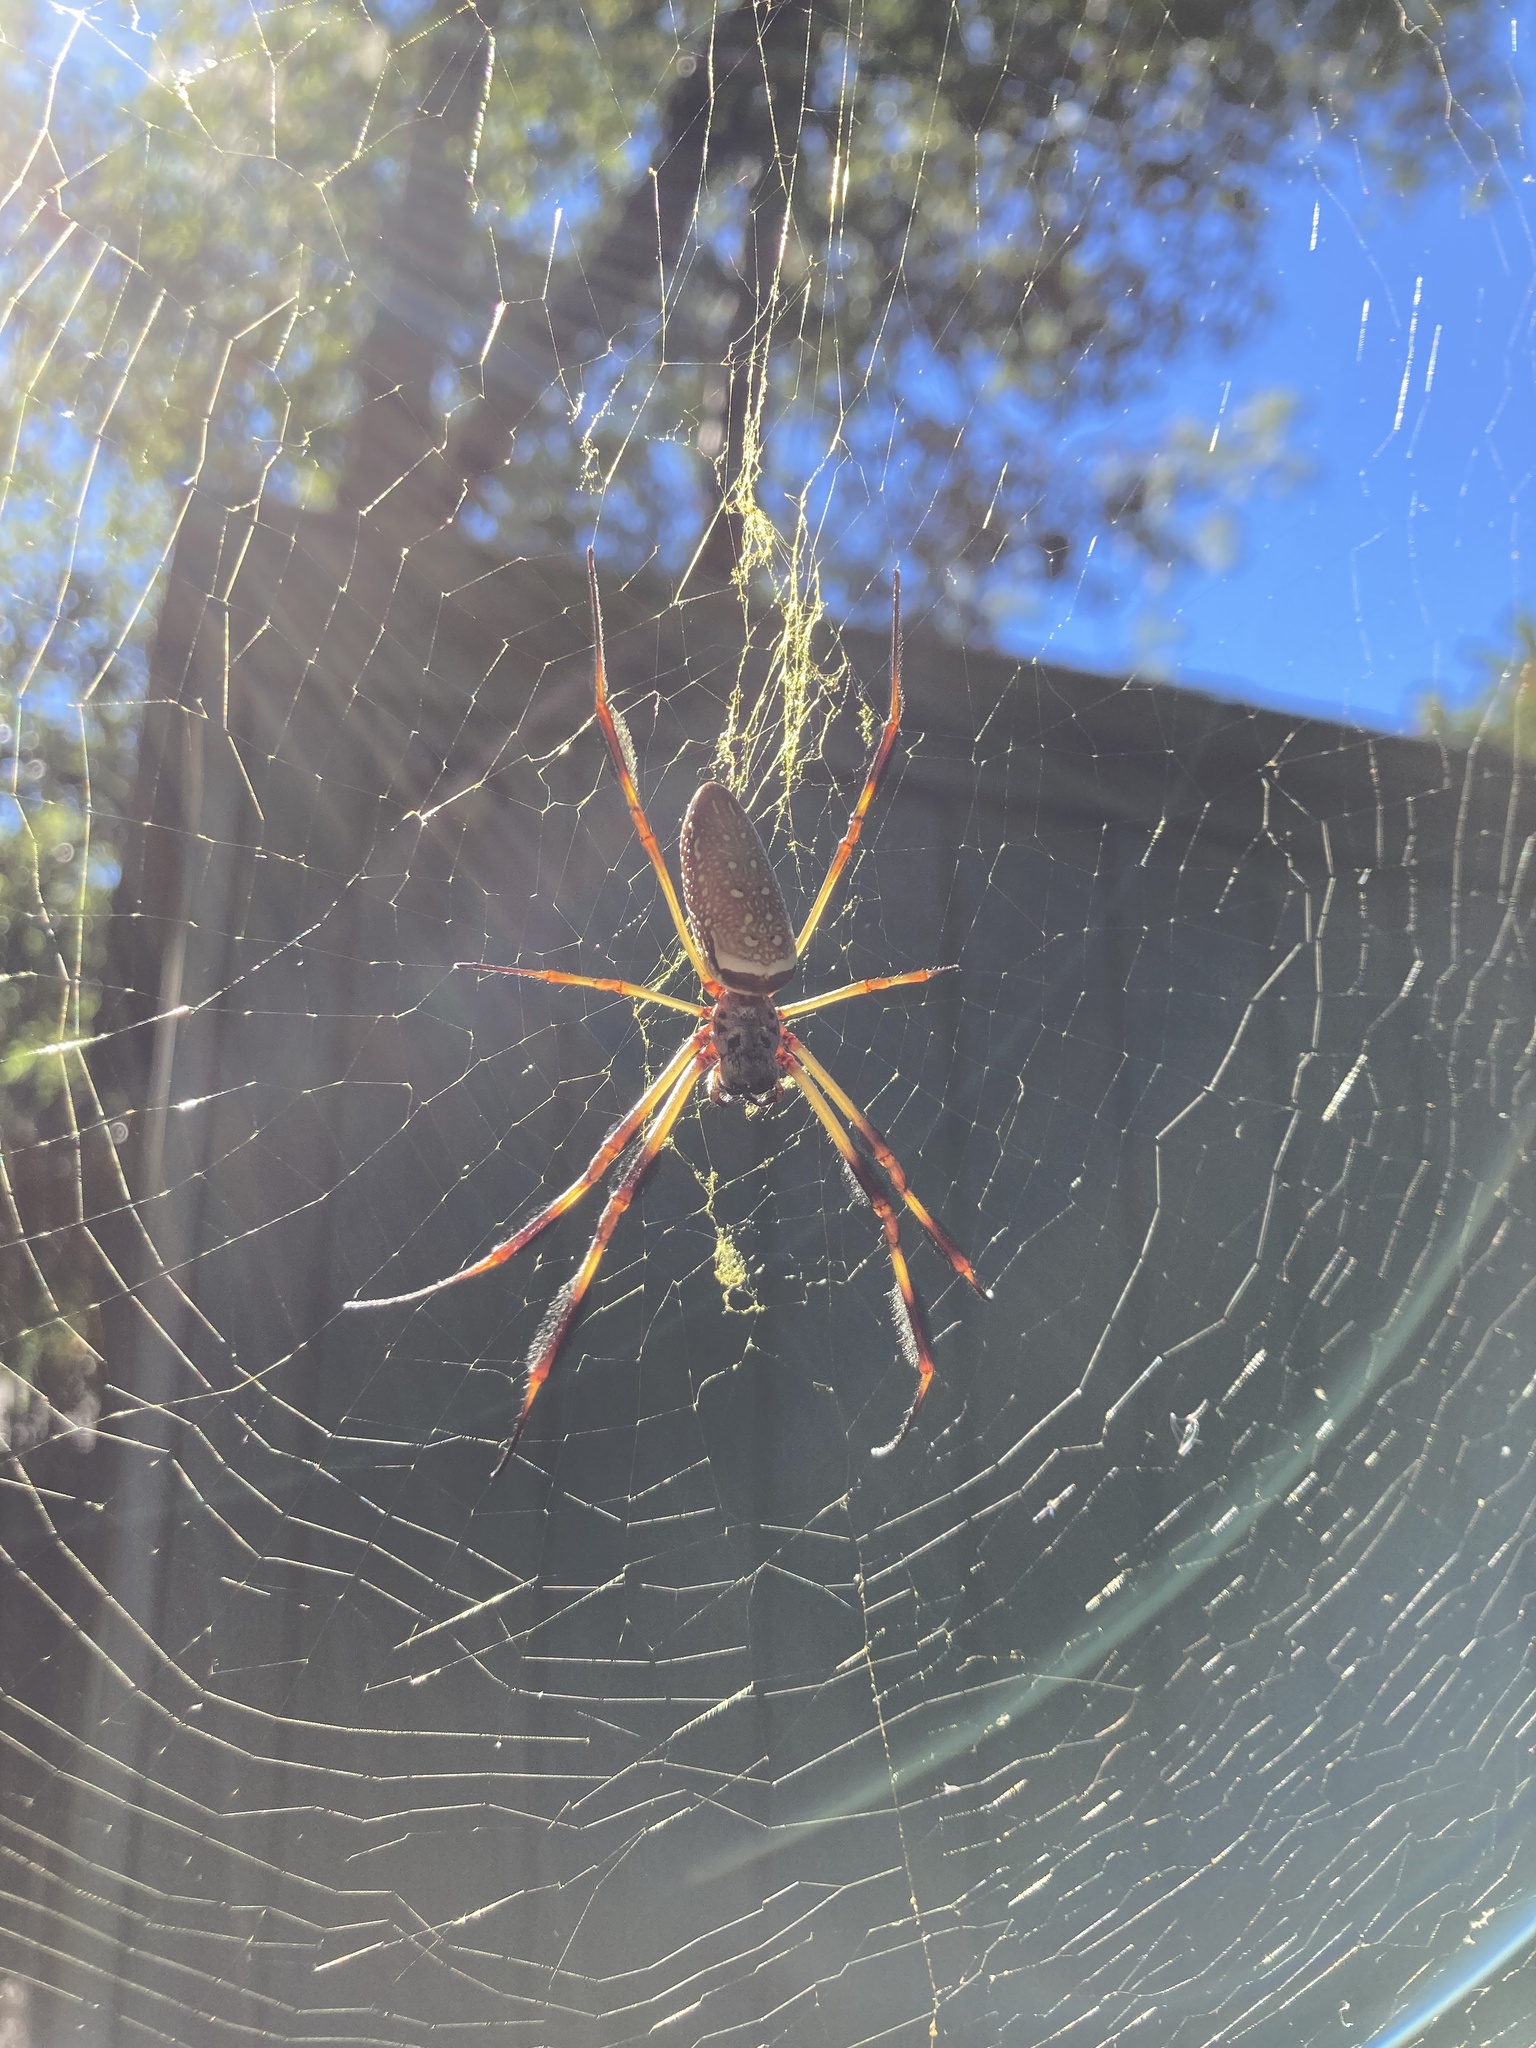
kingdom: Animalia
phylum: Arthropoda
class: Arachnida
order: Araneae
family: Araneidae
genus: Trichonephila
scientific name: Trichonephila clavipes
